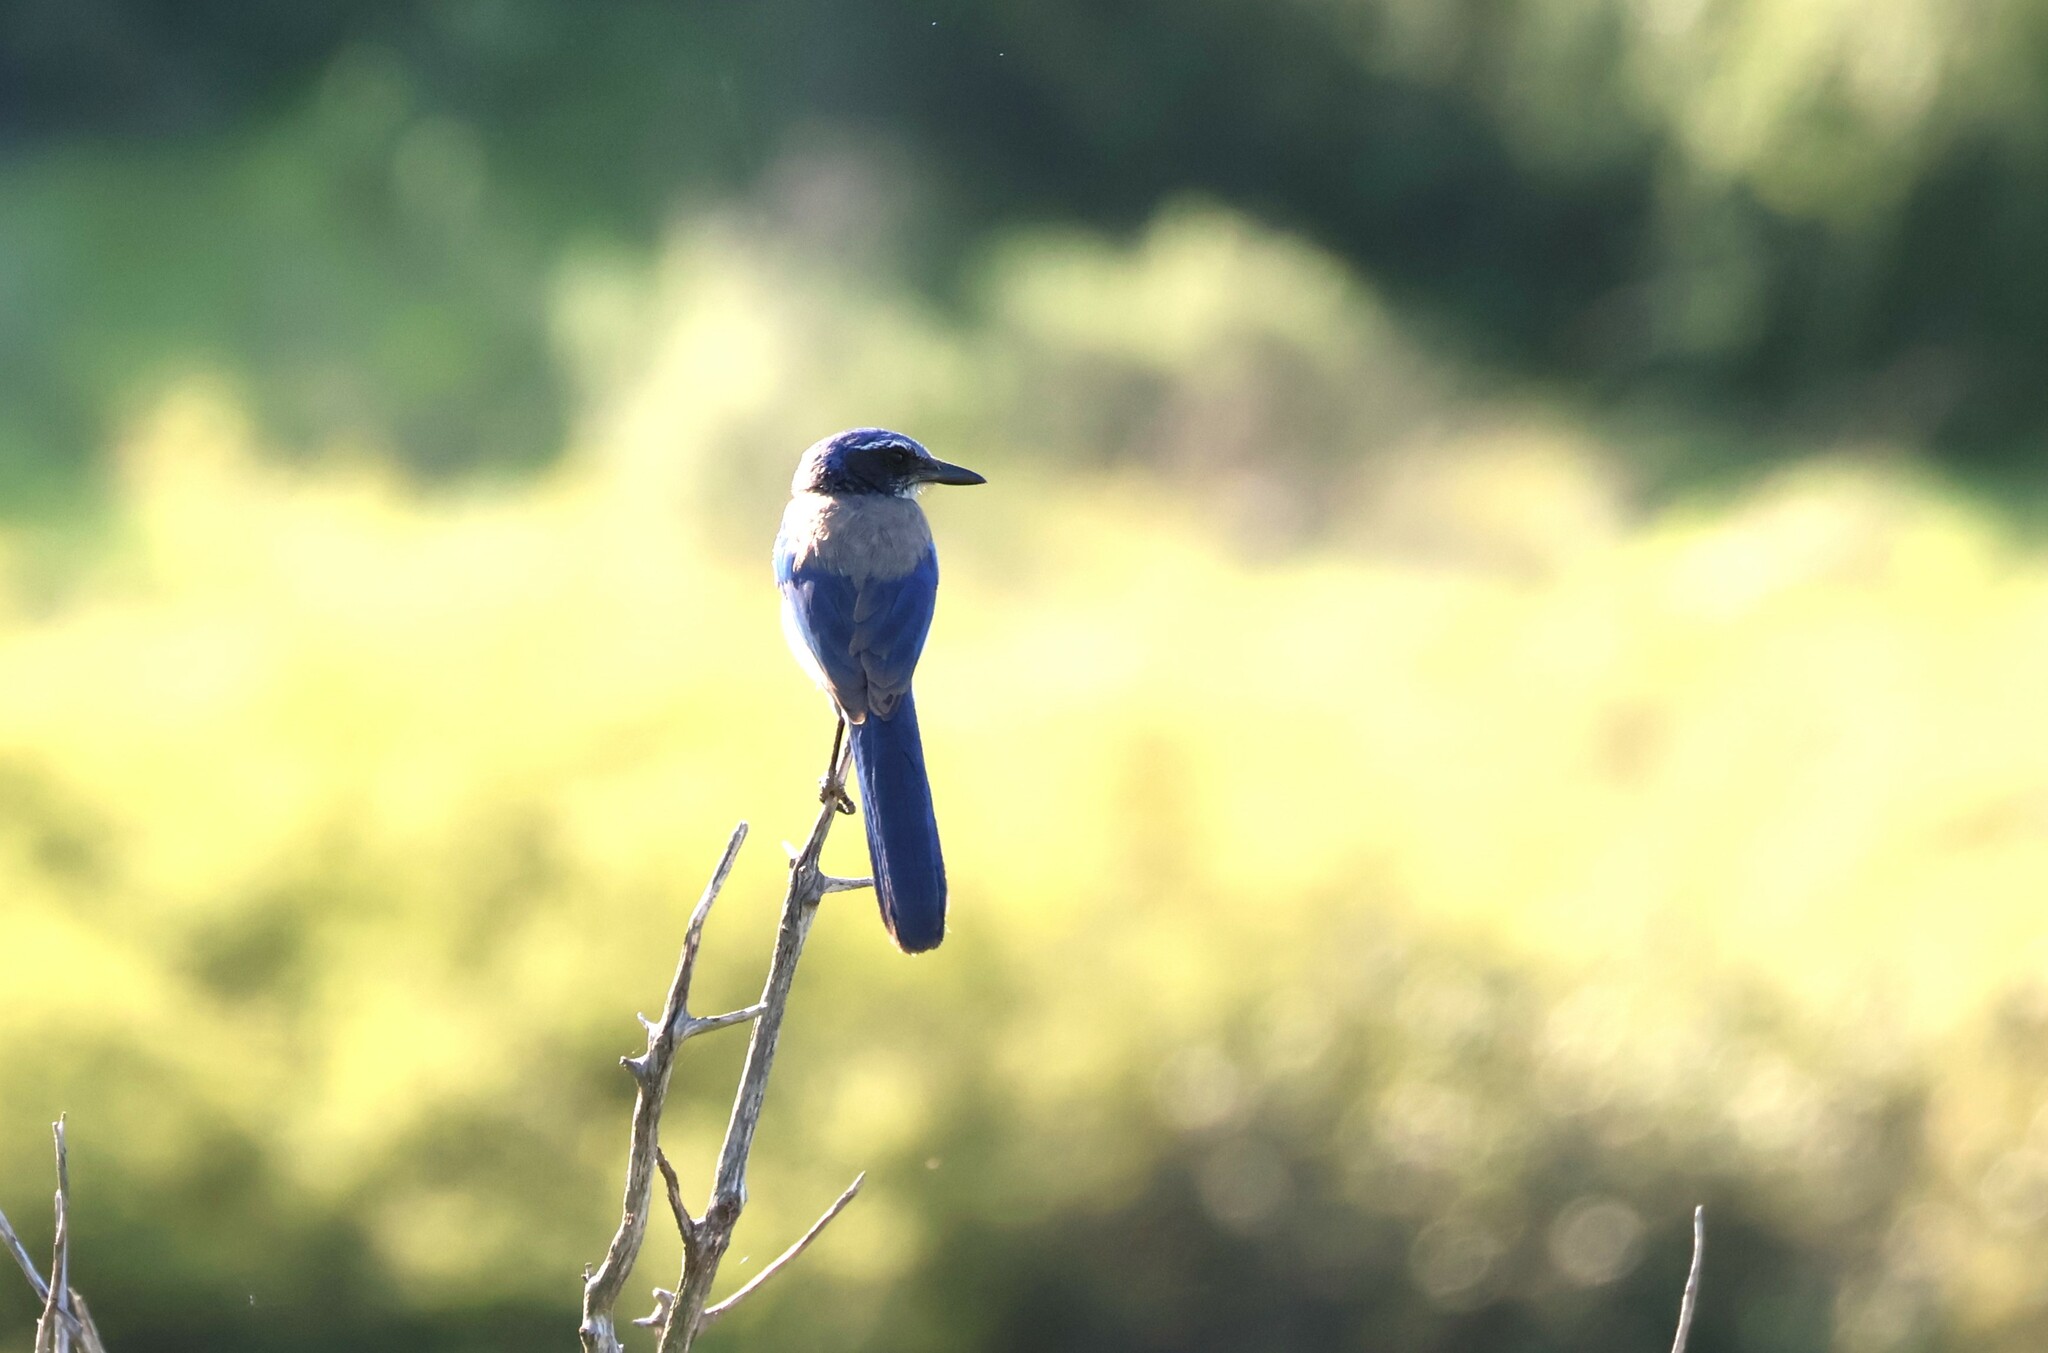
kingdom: Animalia
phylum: Chordata
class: Aves
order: Passeriformes
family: Corvidae
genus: Aphelocoma
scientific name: Aphelocoma californica
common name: California scrub-jay
